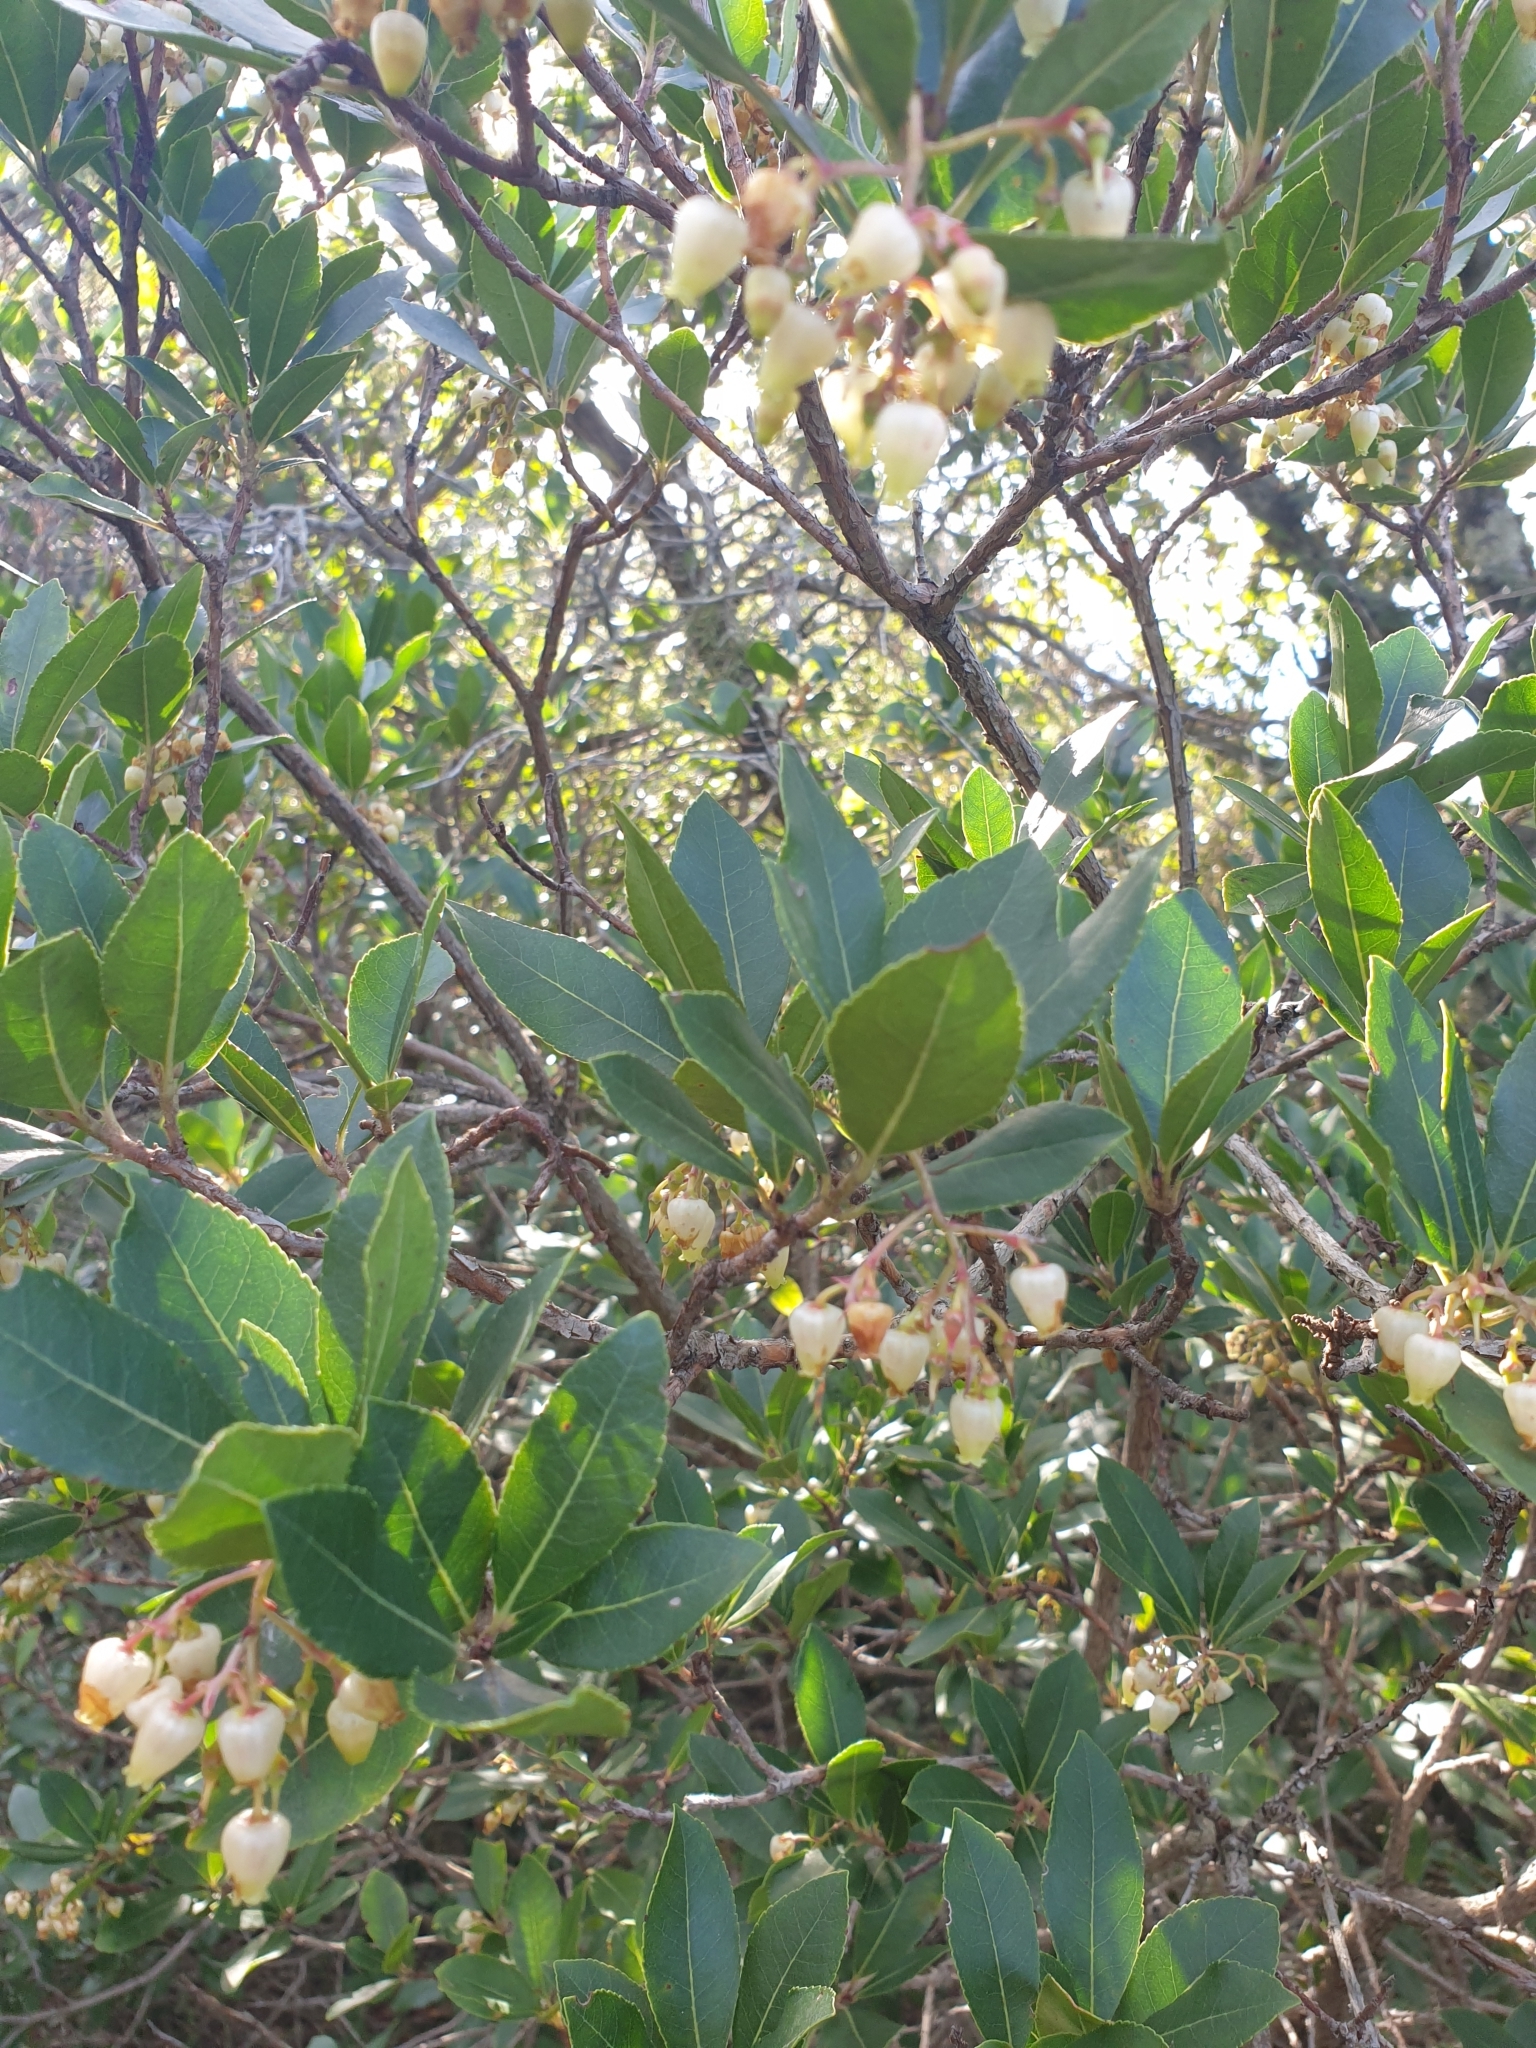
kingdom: Plantae
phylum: Tracheophyta
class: Magnoliopsida
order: Ericales
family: Ericaceae
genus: Arbutus
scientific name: Arbutus unedo
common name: Strawberry-tree
